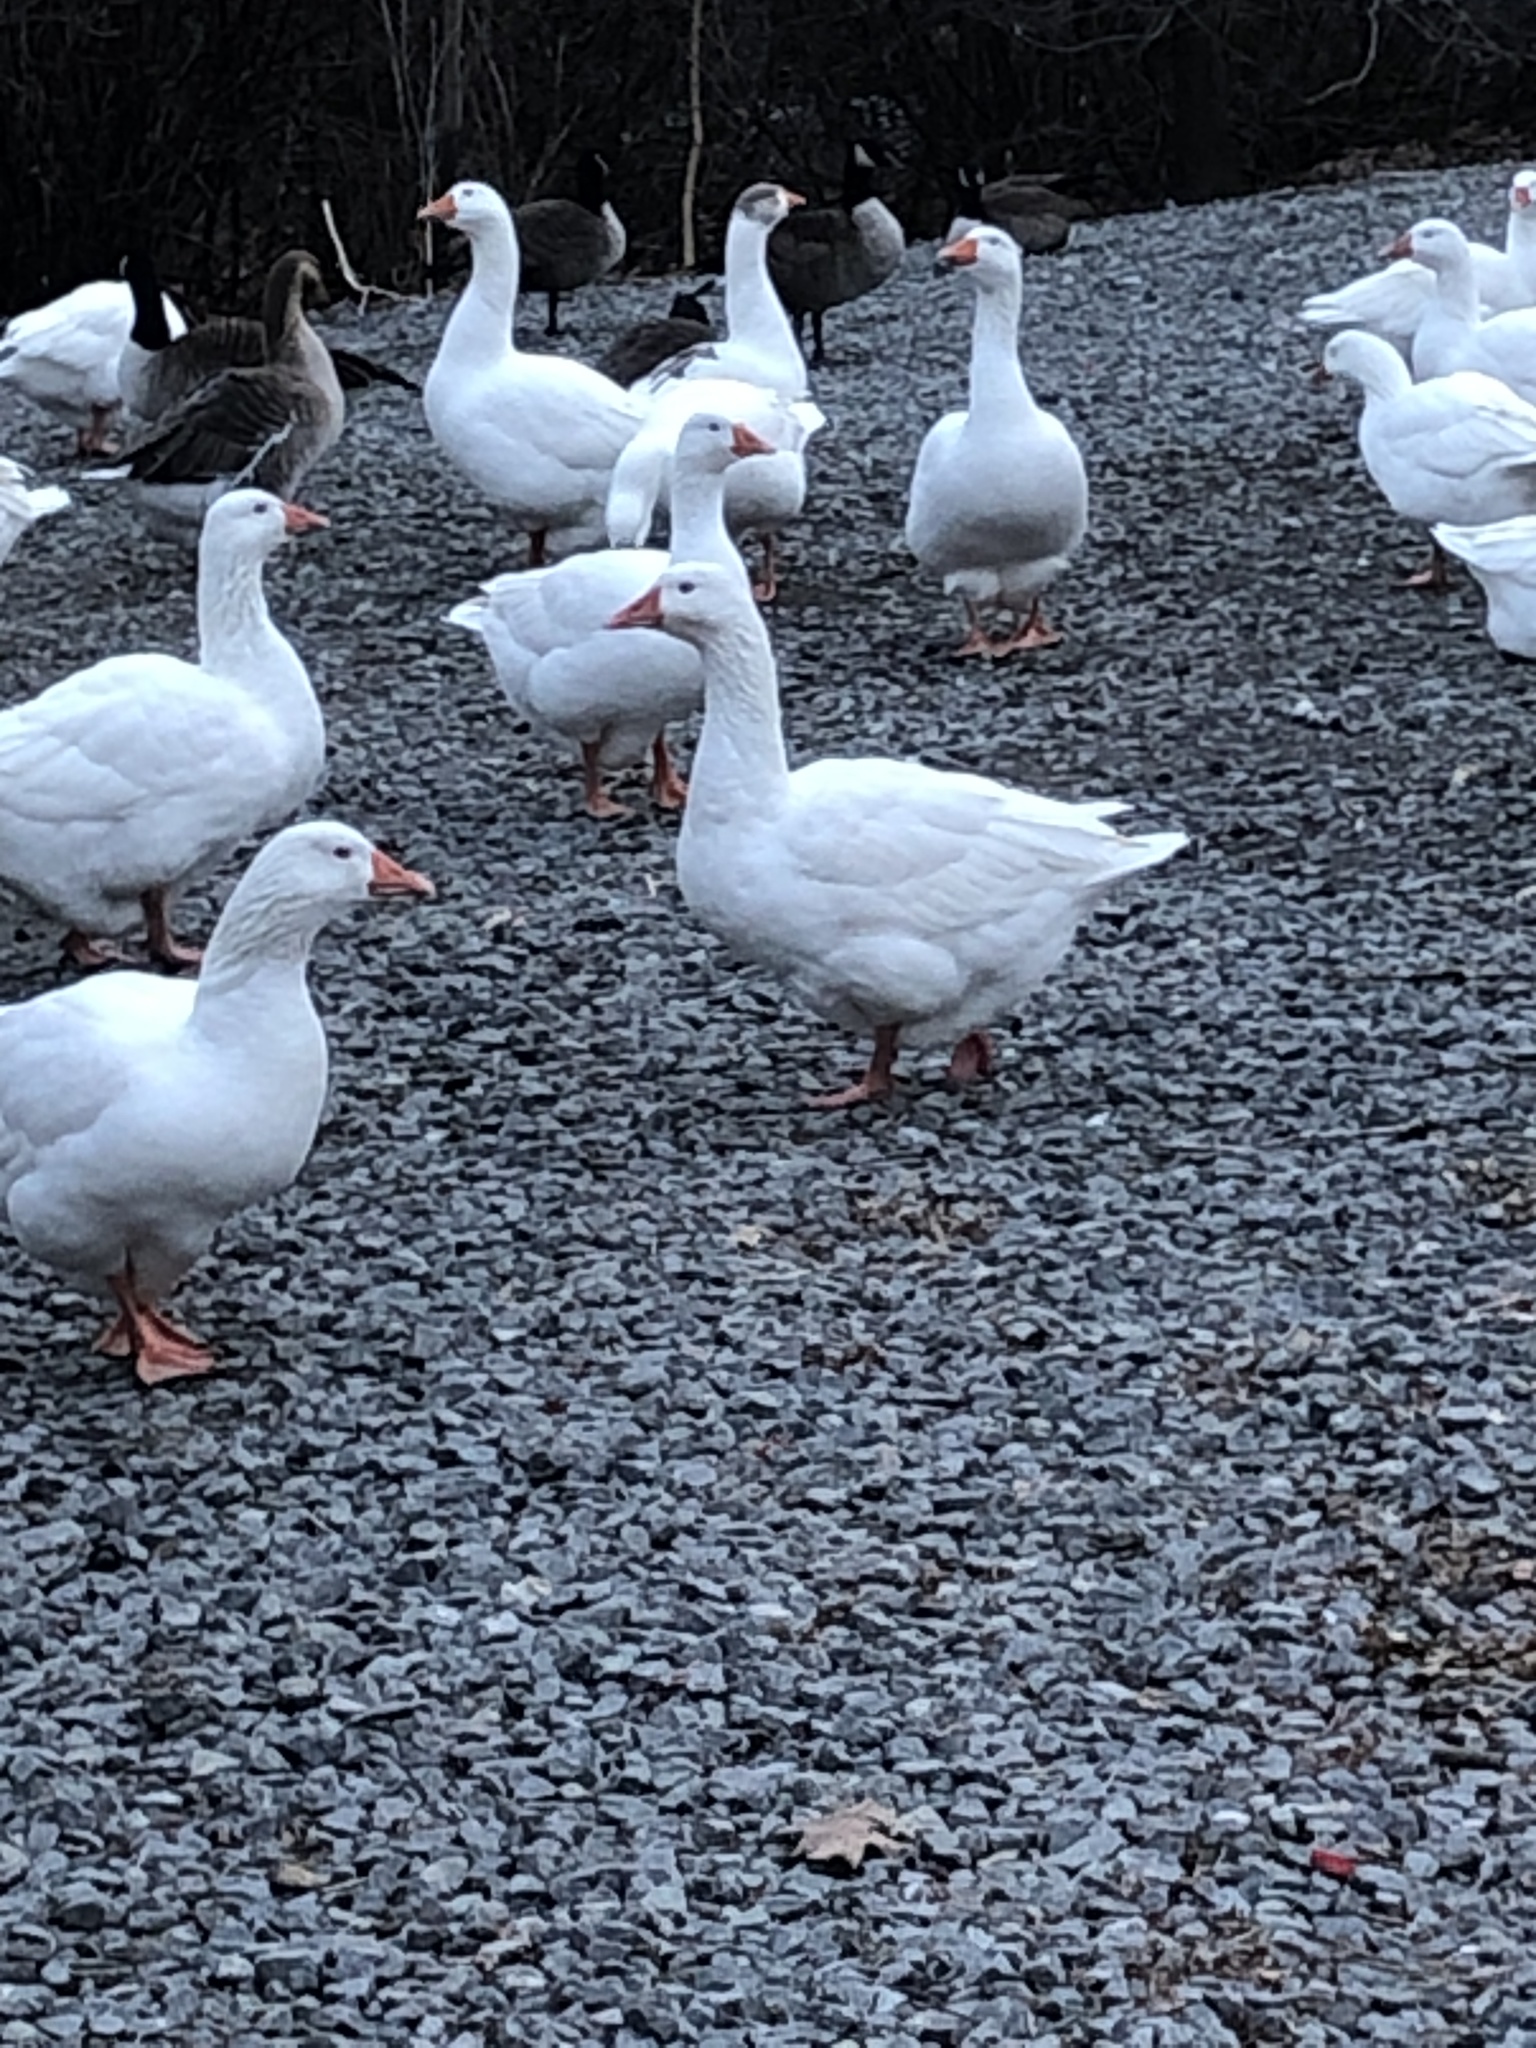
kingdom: Animalia
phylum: Chordata
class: Aves
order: Anseriformes
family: Anatidae
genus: Anser
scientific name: Anser anser
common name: Greylag goose
